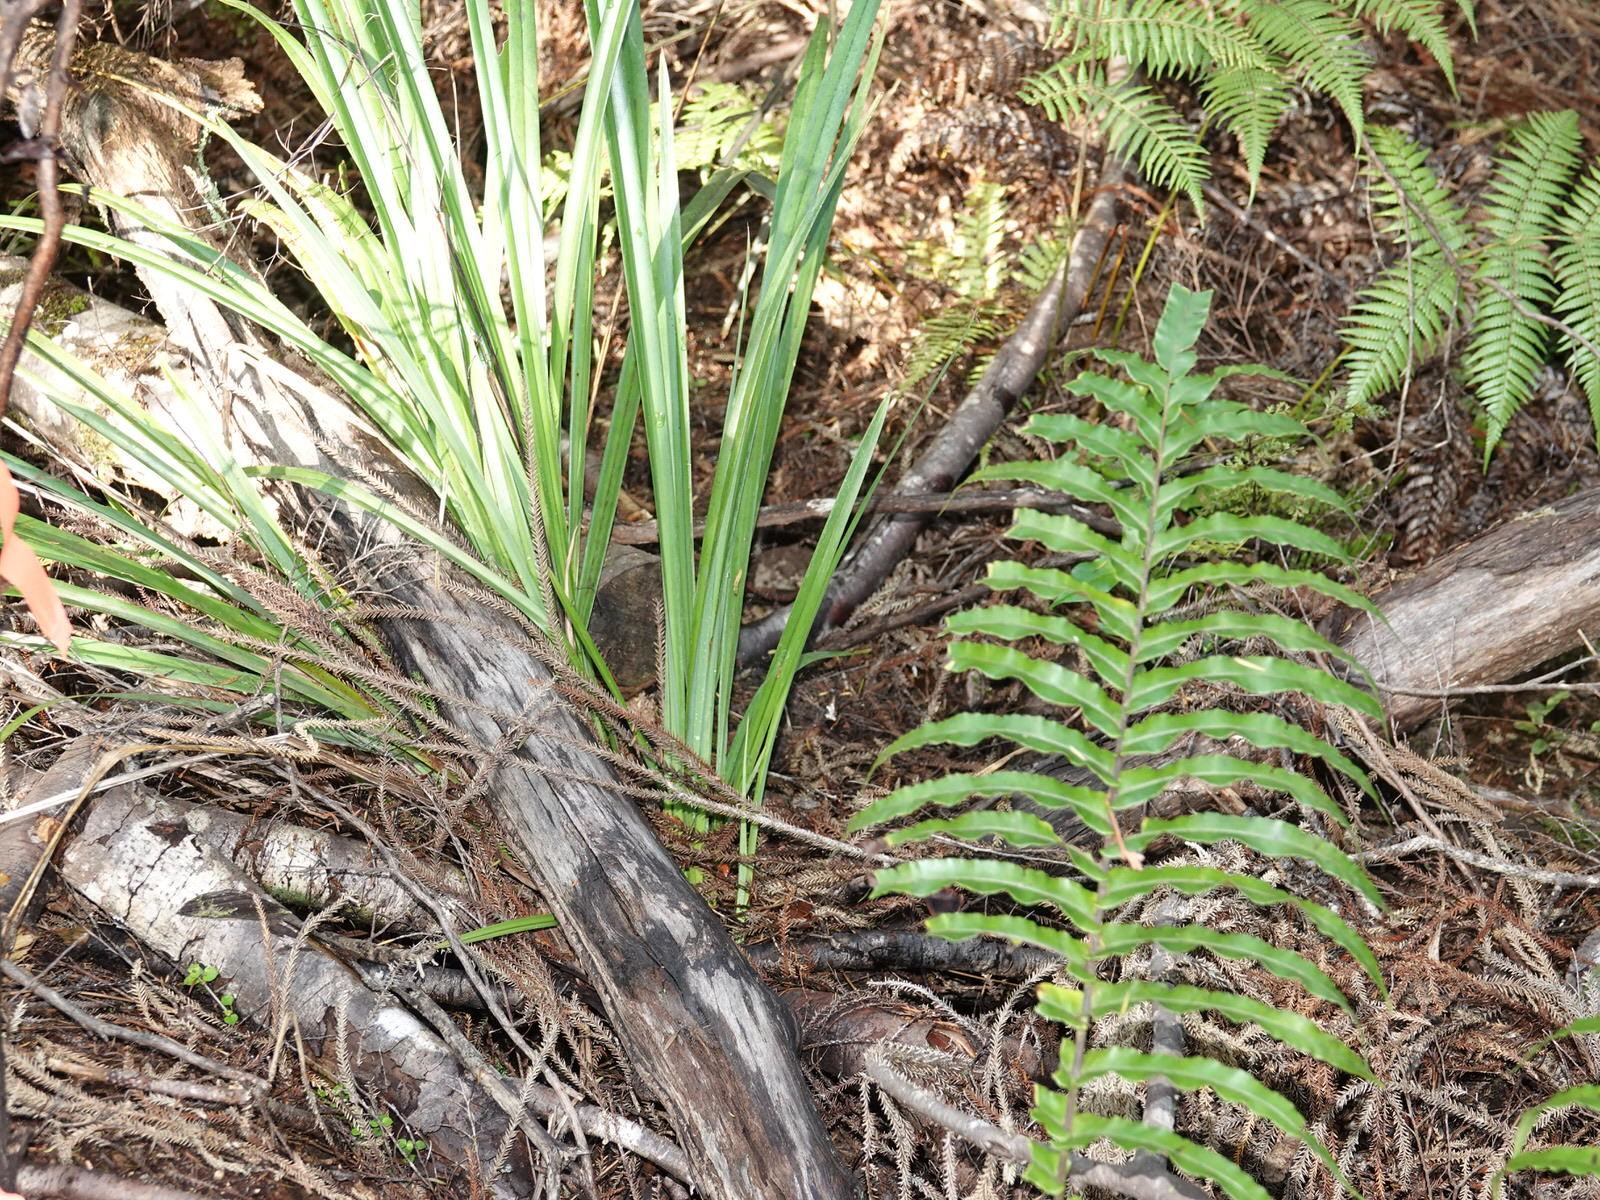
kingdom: Animalia
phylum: Arthropoda
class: Insecta
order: Hymenoptera
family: Vespidae
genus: Vespula
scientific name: Vespula vulgaris
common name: Common wasp
